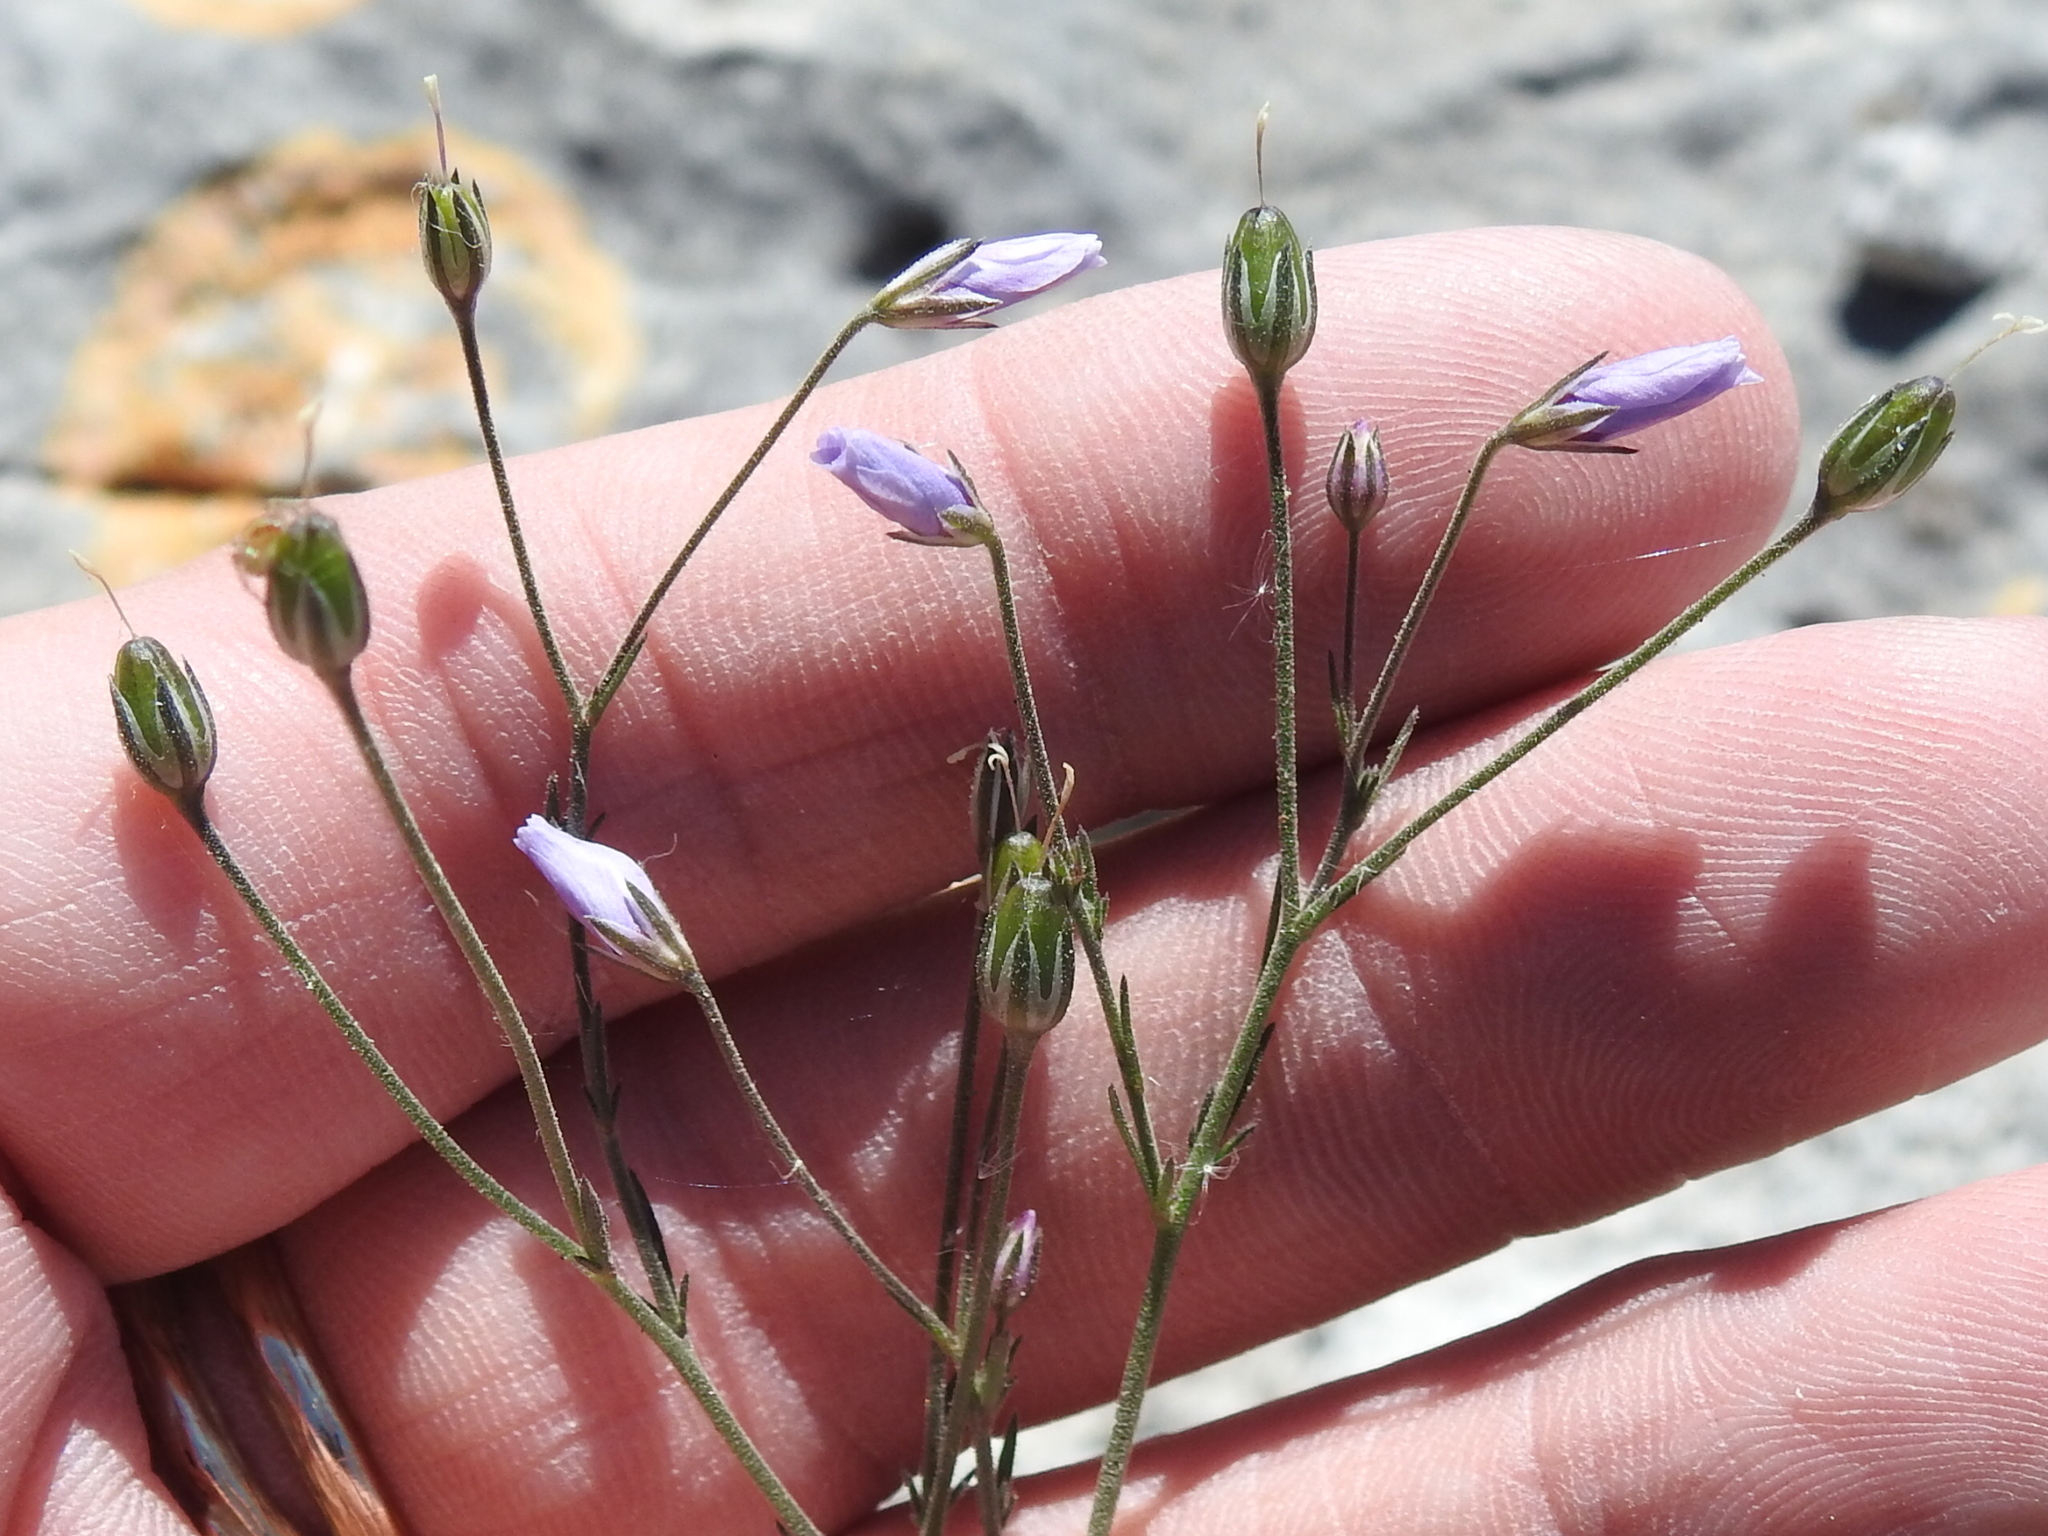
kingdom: Plantae
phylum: Tracheophyta
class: Magnoliopsida
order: Ericales
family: Polemoniaceae
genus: Giliastrum
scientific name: Giliastrum incisum
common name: Splitleaf gilia
